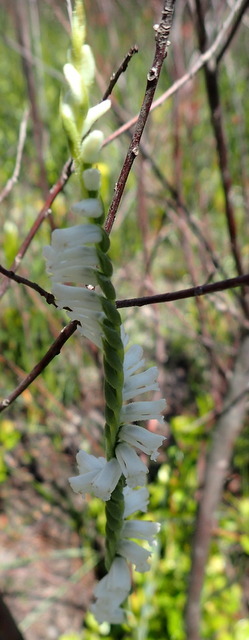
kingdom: Plantae
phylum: Tracheophyta
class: Liliopsida
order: Asparagales
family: Orchidaceae
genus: Spiranthes
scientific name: Spiranthes praecox
